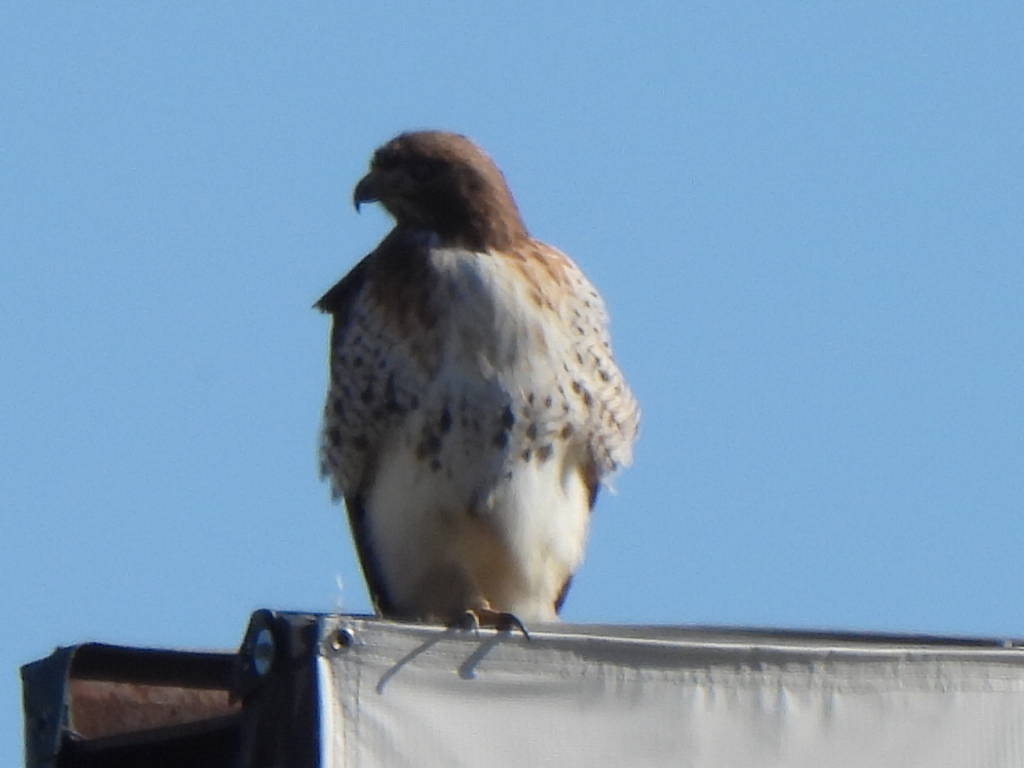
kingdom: Animalia
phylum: Chordata
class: Aves
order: Accipitriformes
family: Accipitridae
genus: Buteo
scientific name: Buteo jamaicensis
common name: Red-tailed hawk
